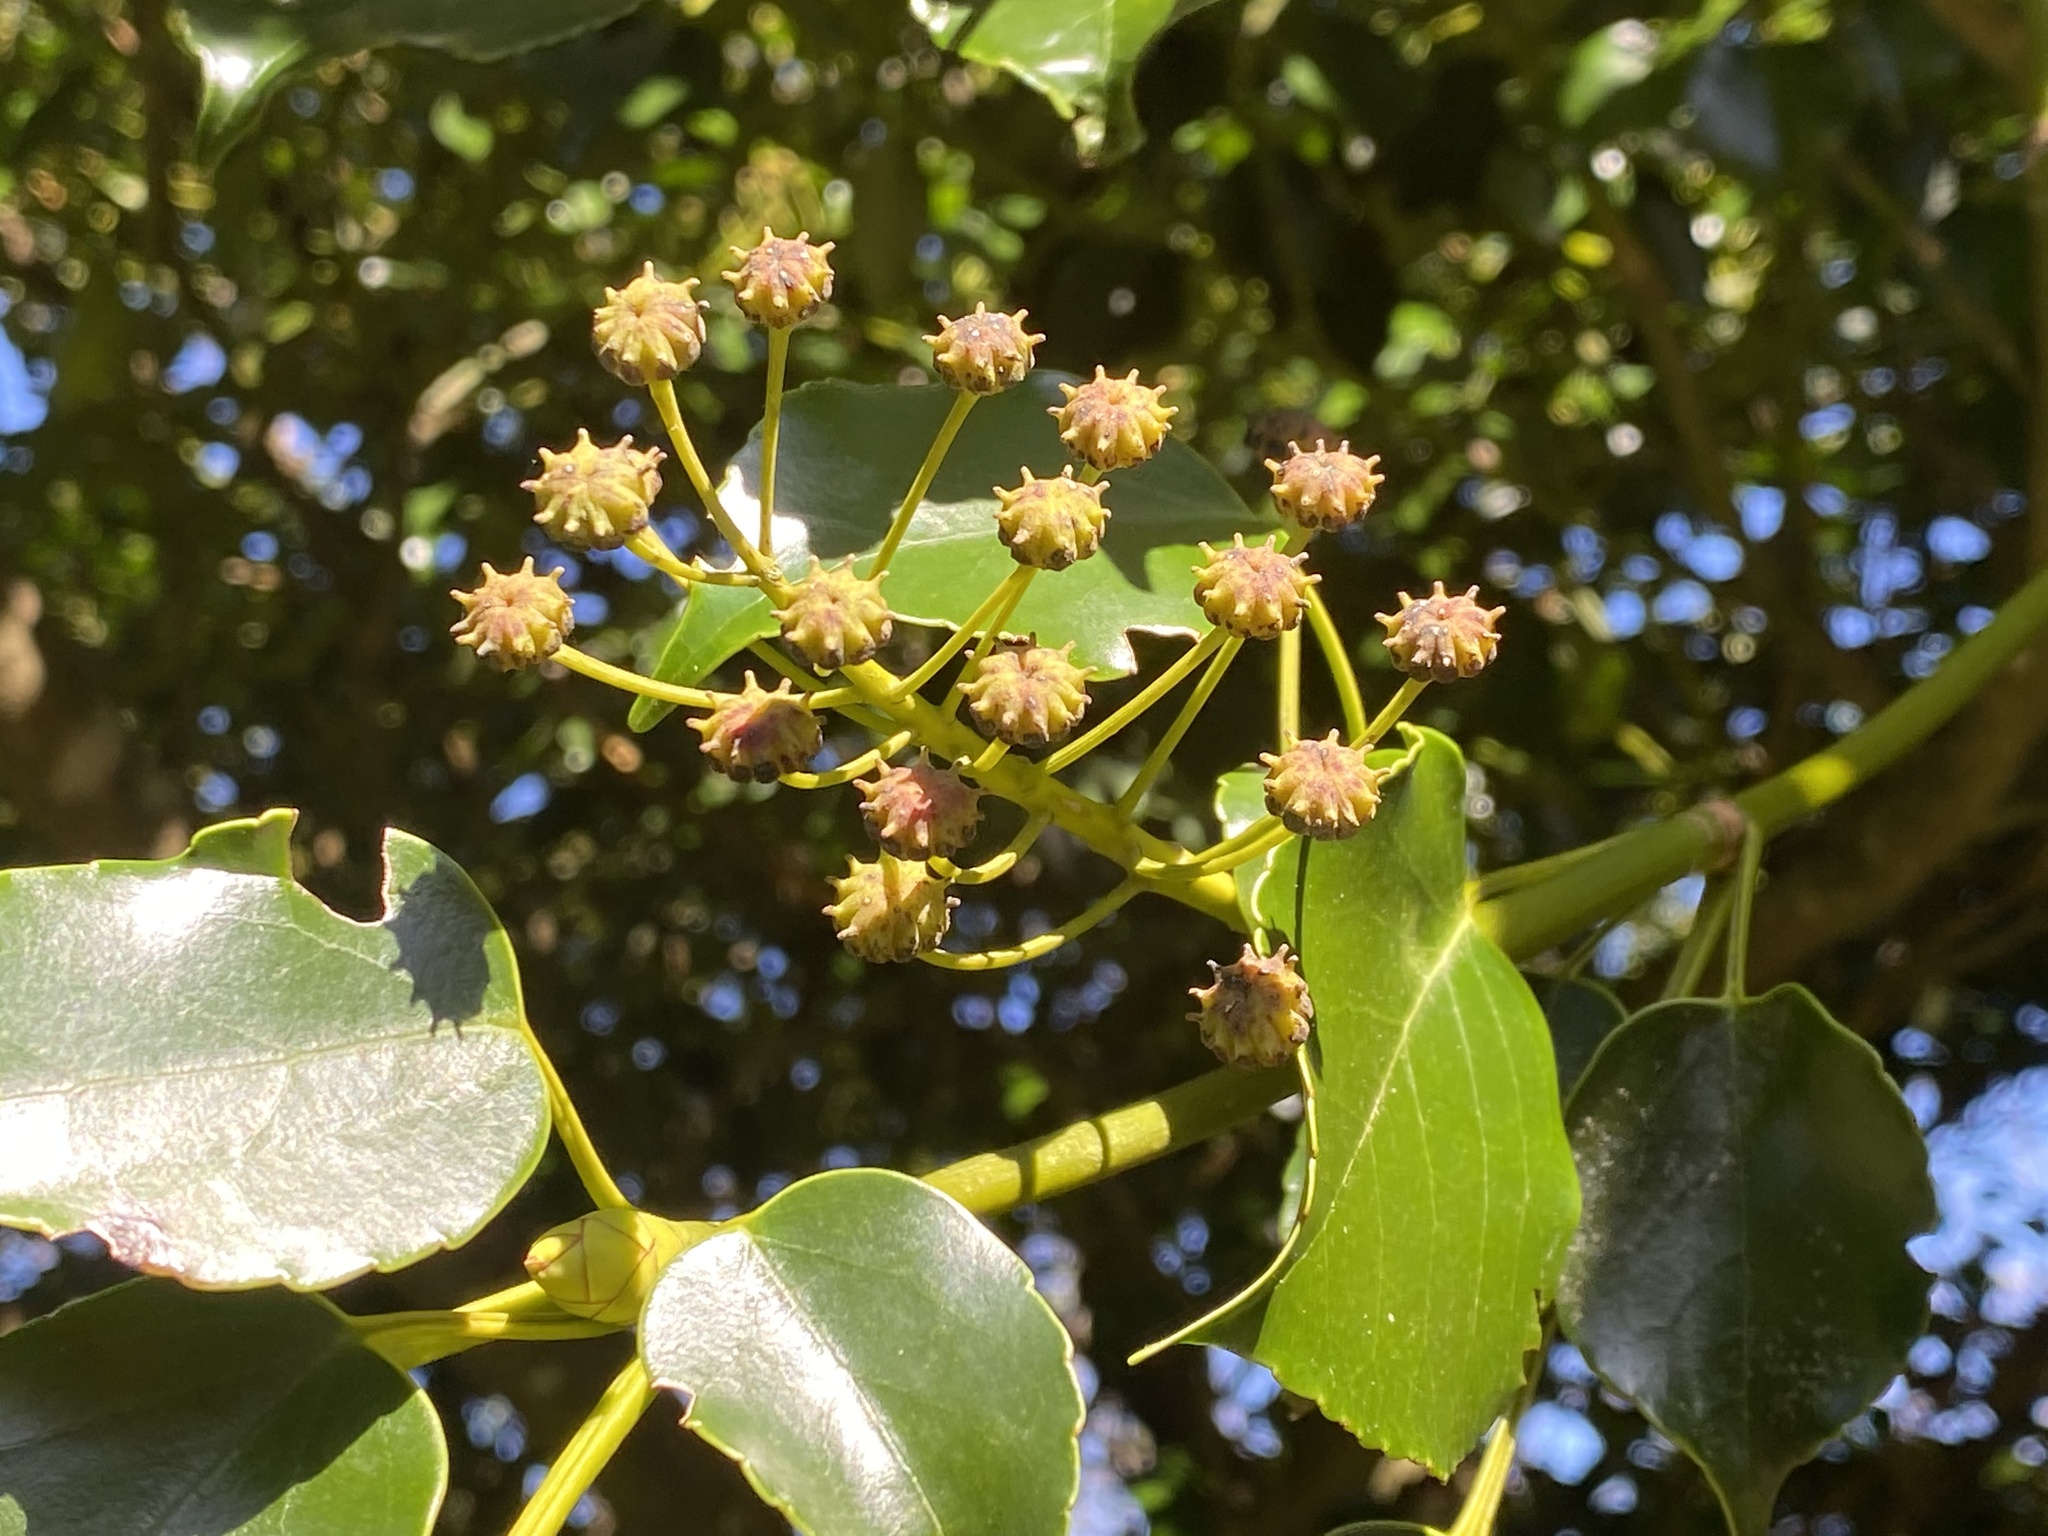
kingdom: Plantae
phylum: Tracheophyta
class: Magnoliopsida
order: Trochodendrales
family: Trochodendraceae
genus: Trochodendron
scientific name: Trochodendron aralioides
